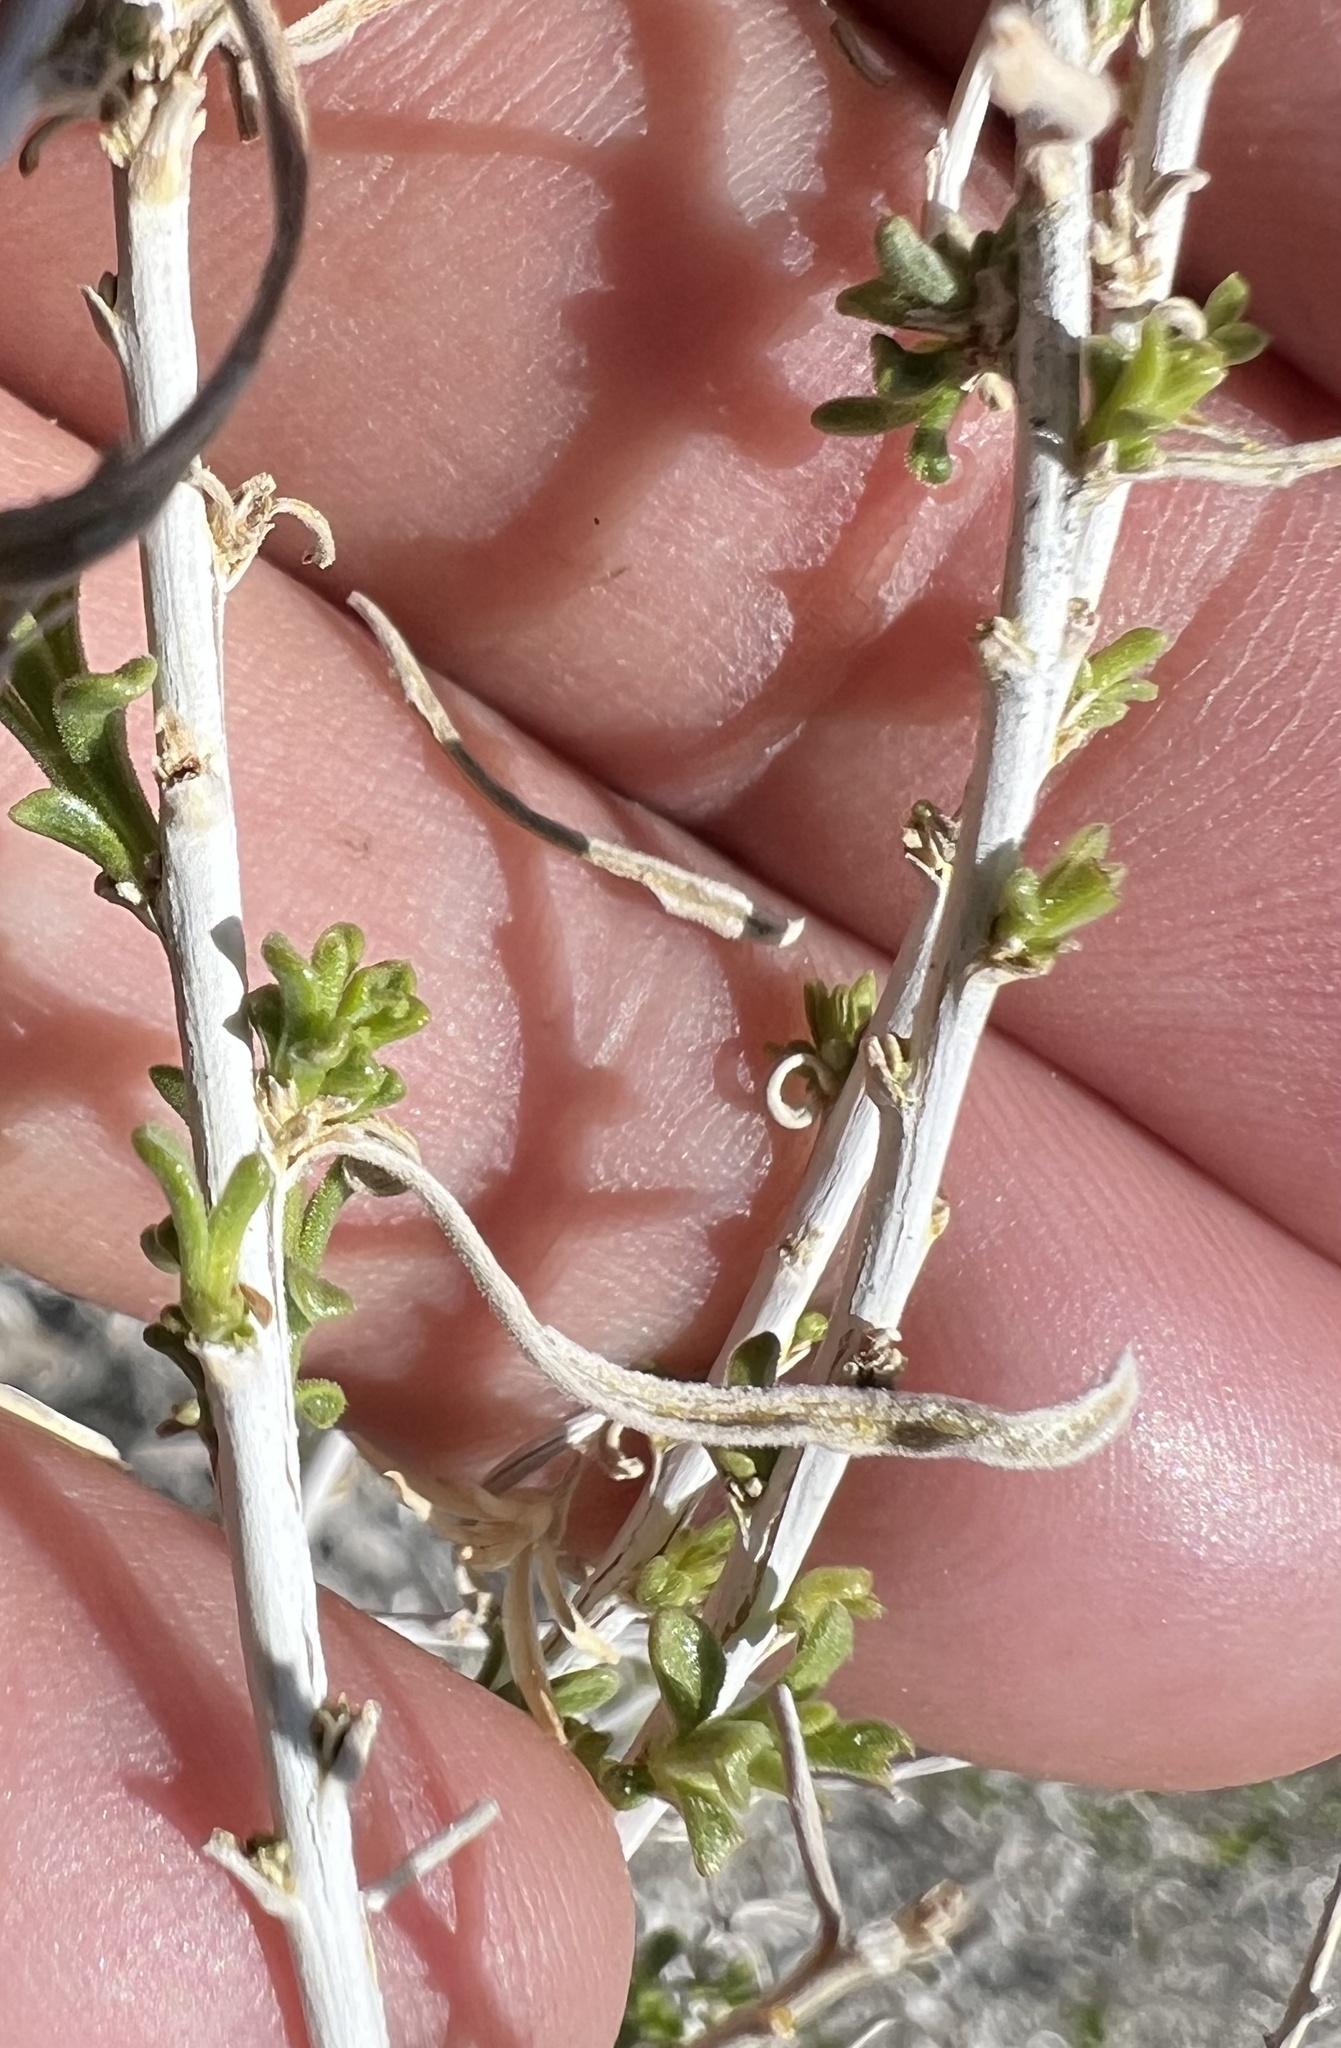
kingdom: Plantae
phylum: Tracheophyta
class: Magnoliopsida
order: Asterales
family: Asteraceae
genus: Chrysothamnus
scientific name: Chrysothamnus viscidiflorus
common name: Yellow rabbitbrush
